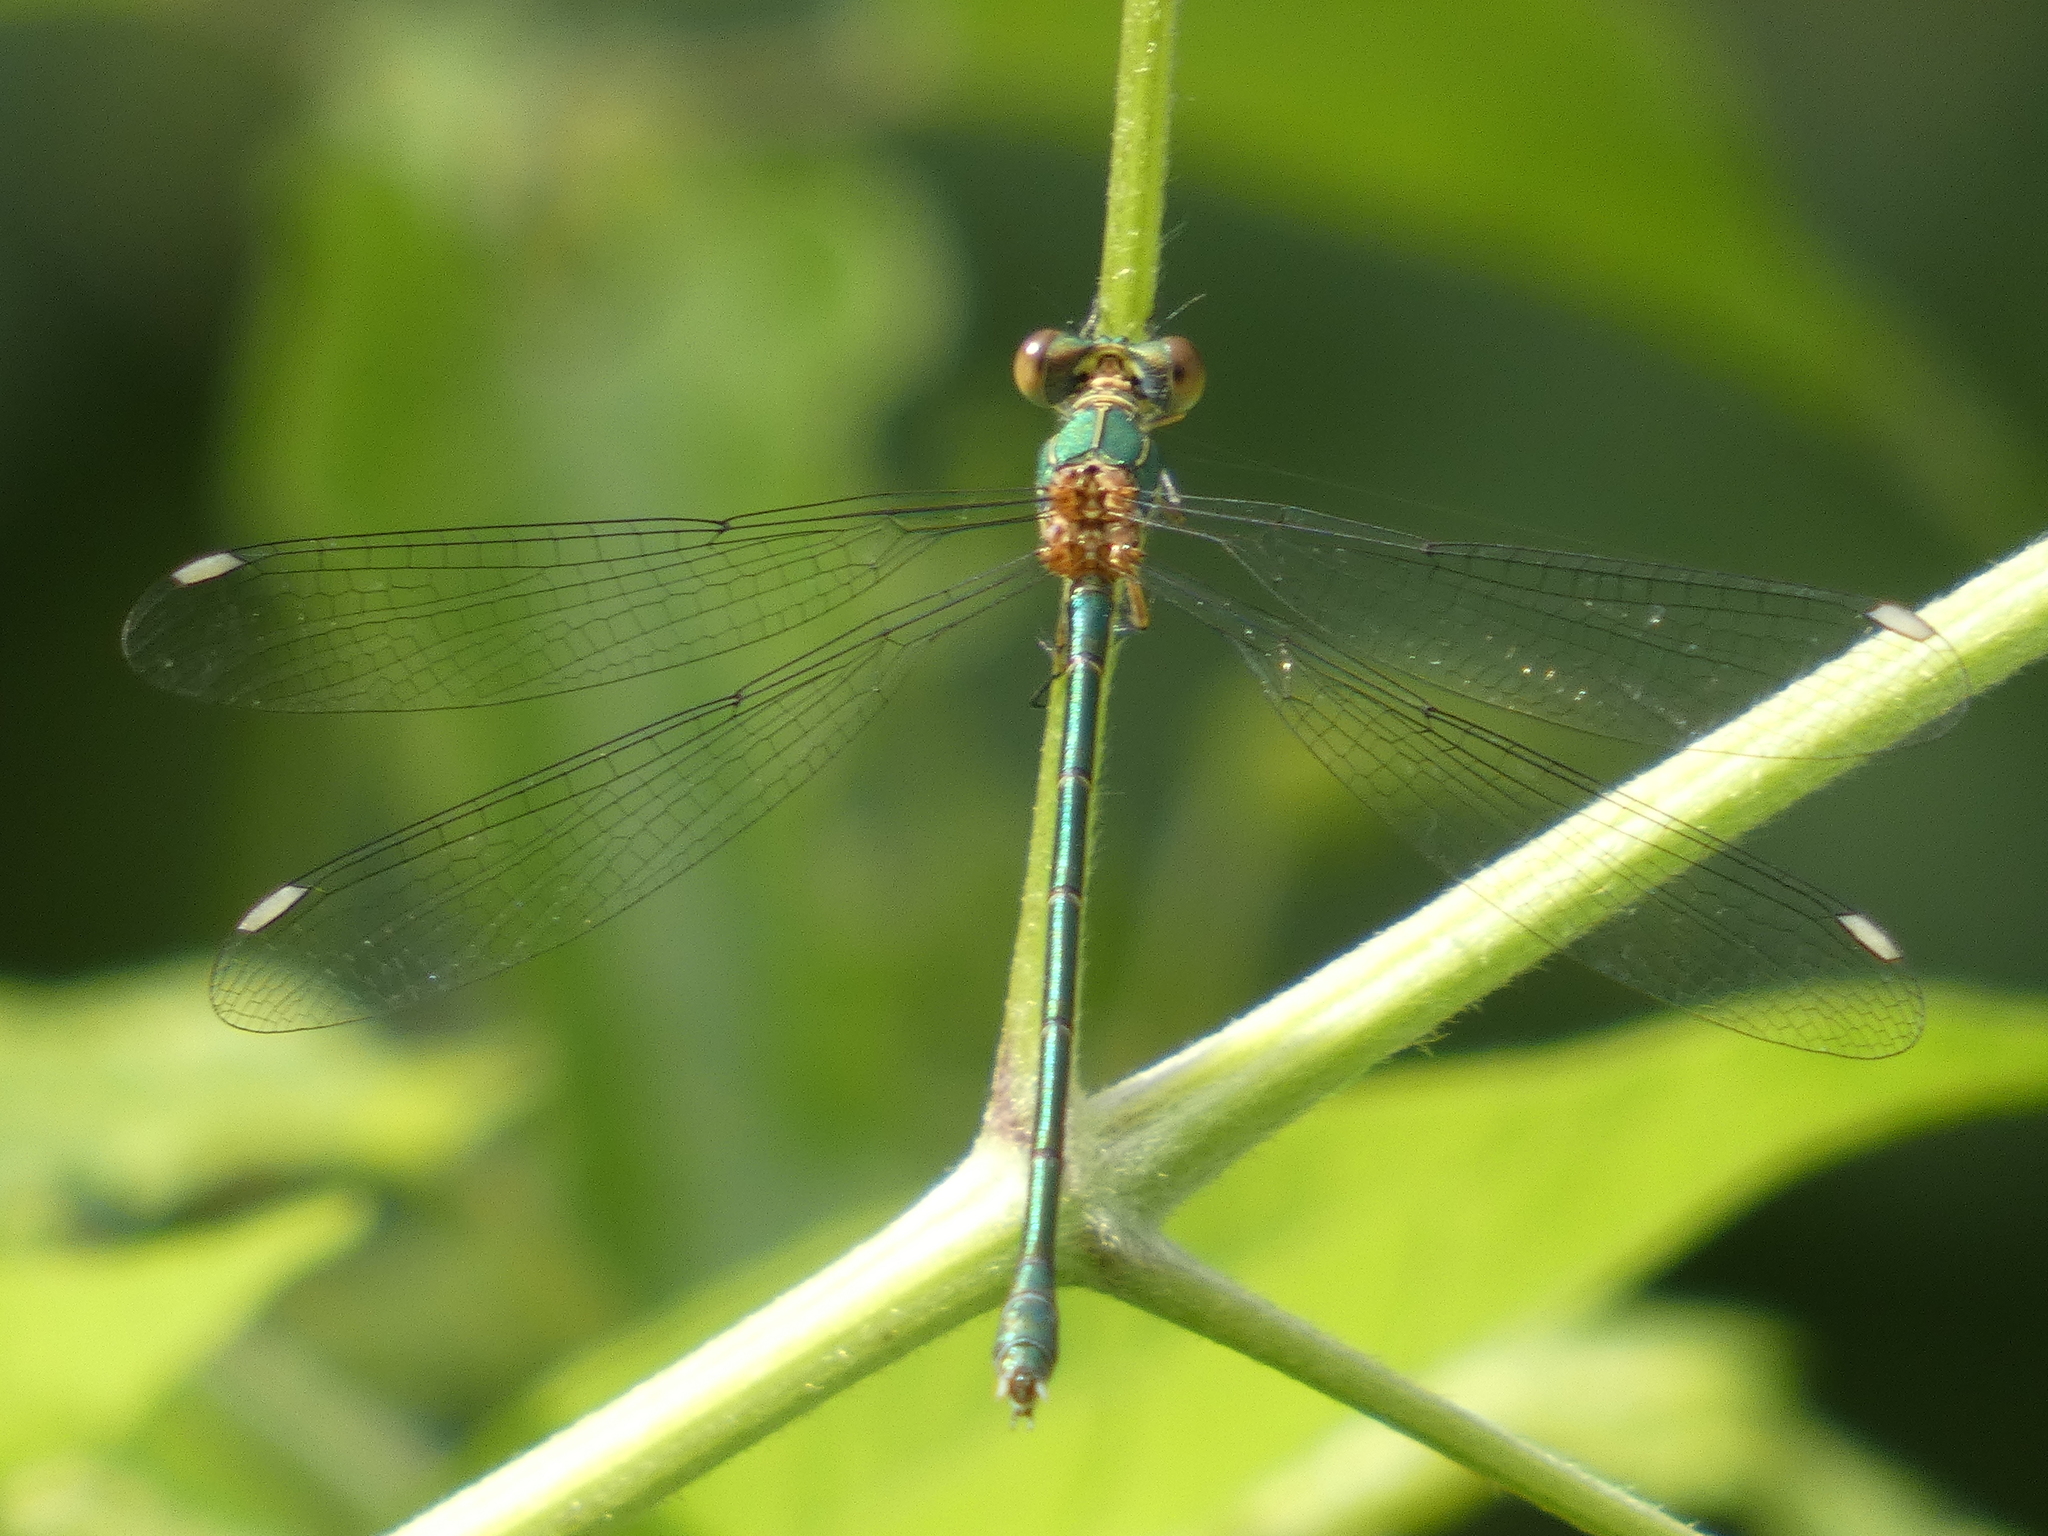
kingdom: Animalia
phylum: Arthropoda
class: Insecta
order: Odonata
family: Lestidae
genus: Chalcolestes
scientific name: Chalcolestes viridis
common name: Green emerald damselfly
